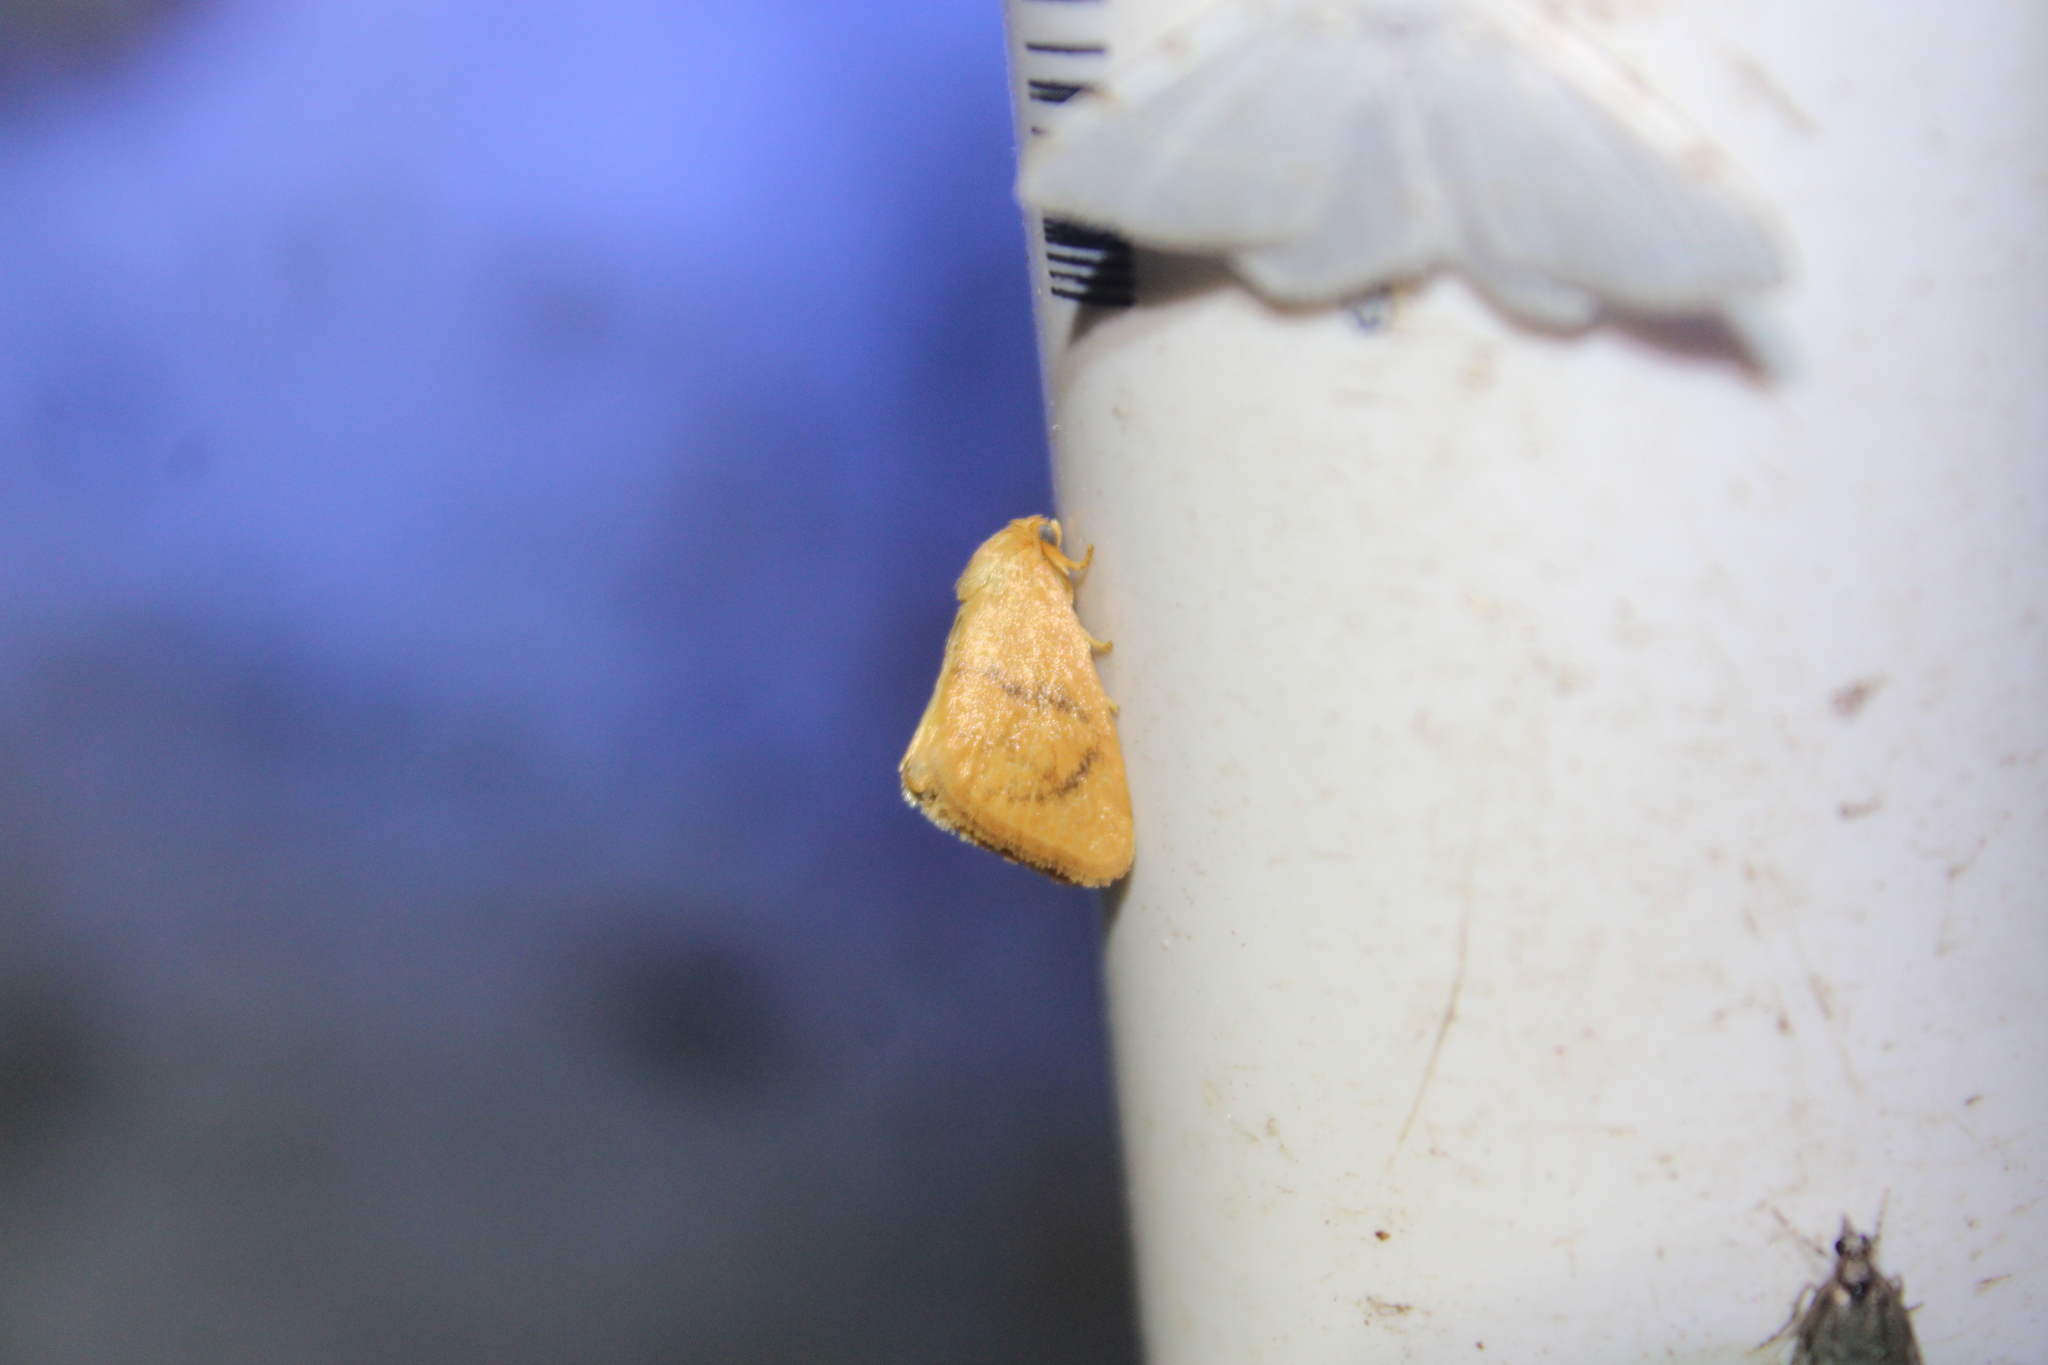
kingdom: Animalia
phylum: Arthropoda
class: Insecta
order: Lepidoptera
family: Limacodidae
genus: Tortricidia
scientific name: Tortricidia flexuosa
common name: Abbreviated button slug moth
